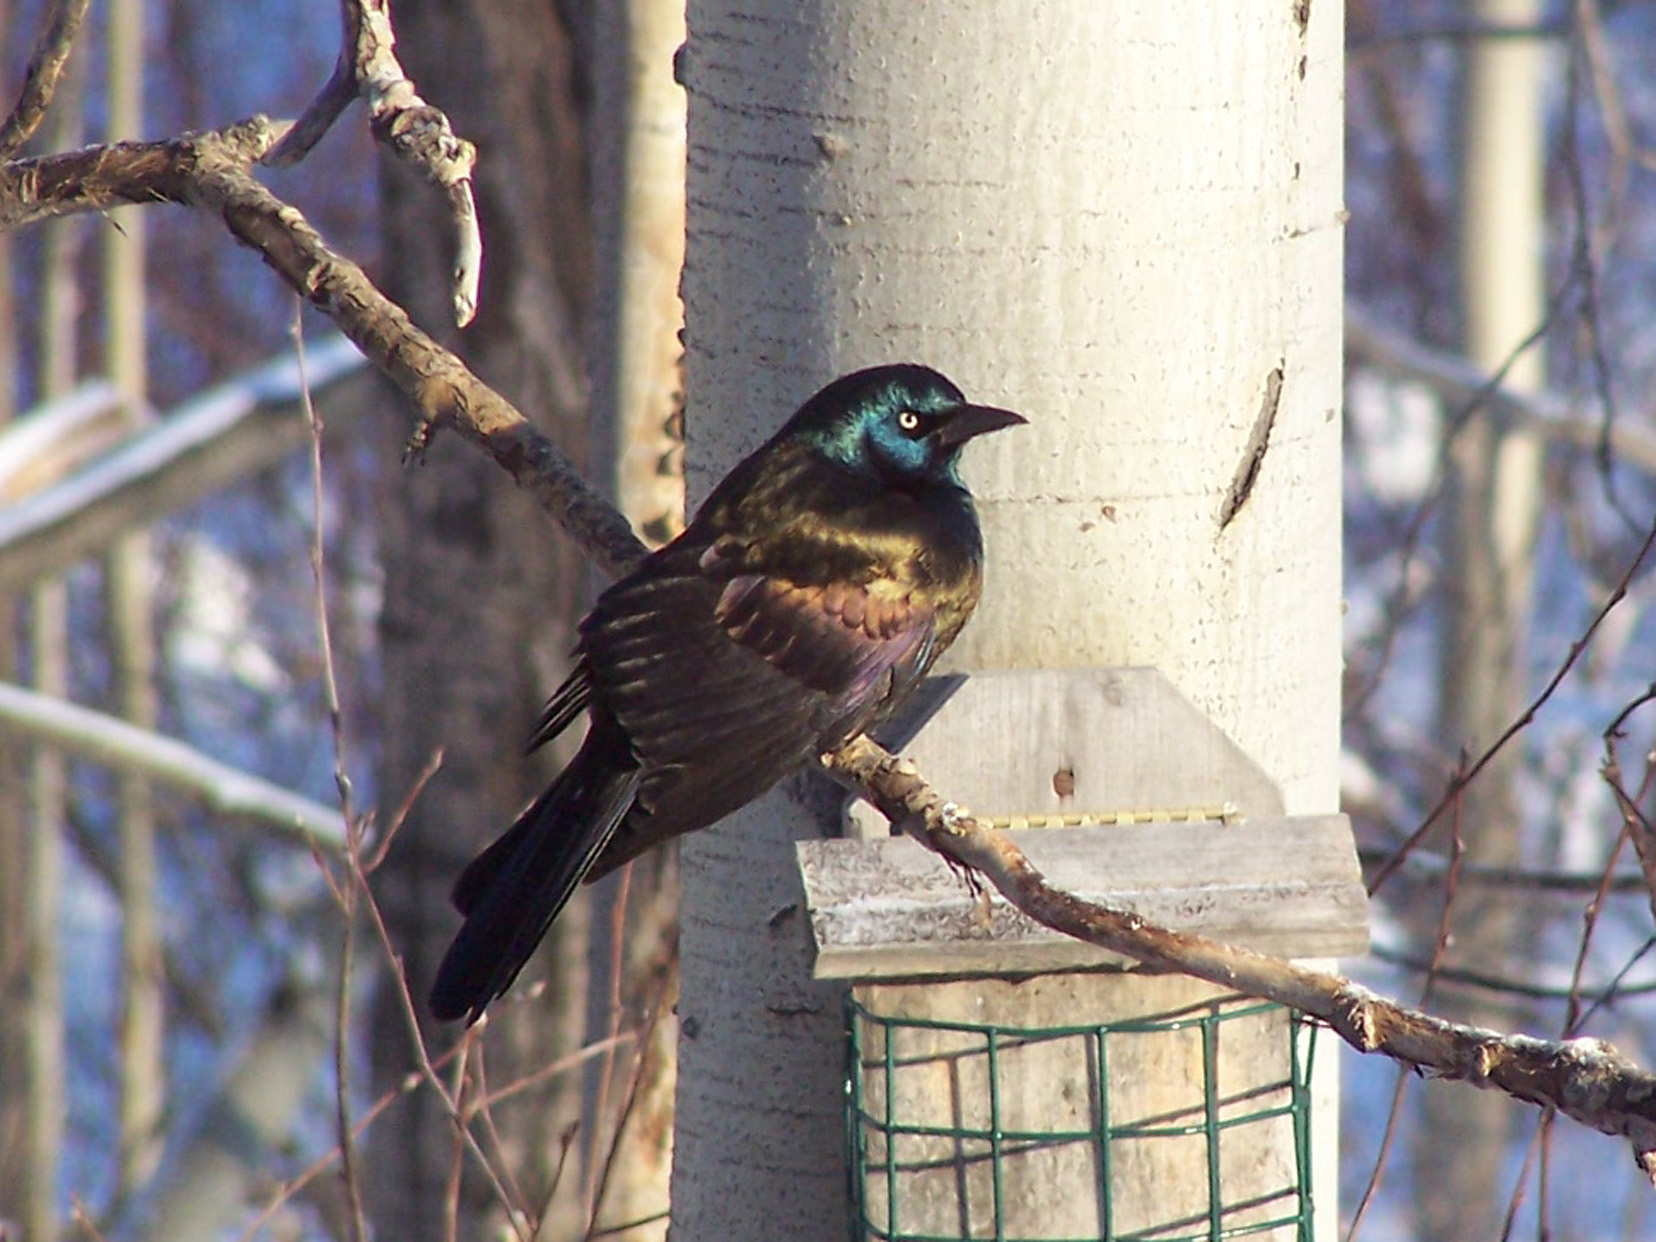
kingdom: Animalia
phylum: Chordata
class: Aves
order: Passeriformes
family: Icteridae
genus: Quiscalus
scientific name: Quiscalus quiscula
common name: Common grackle
